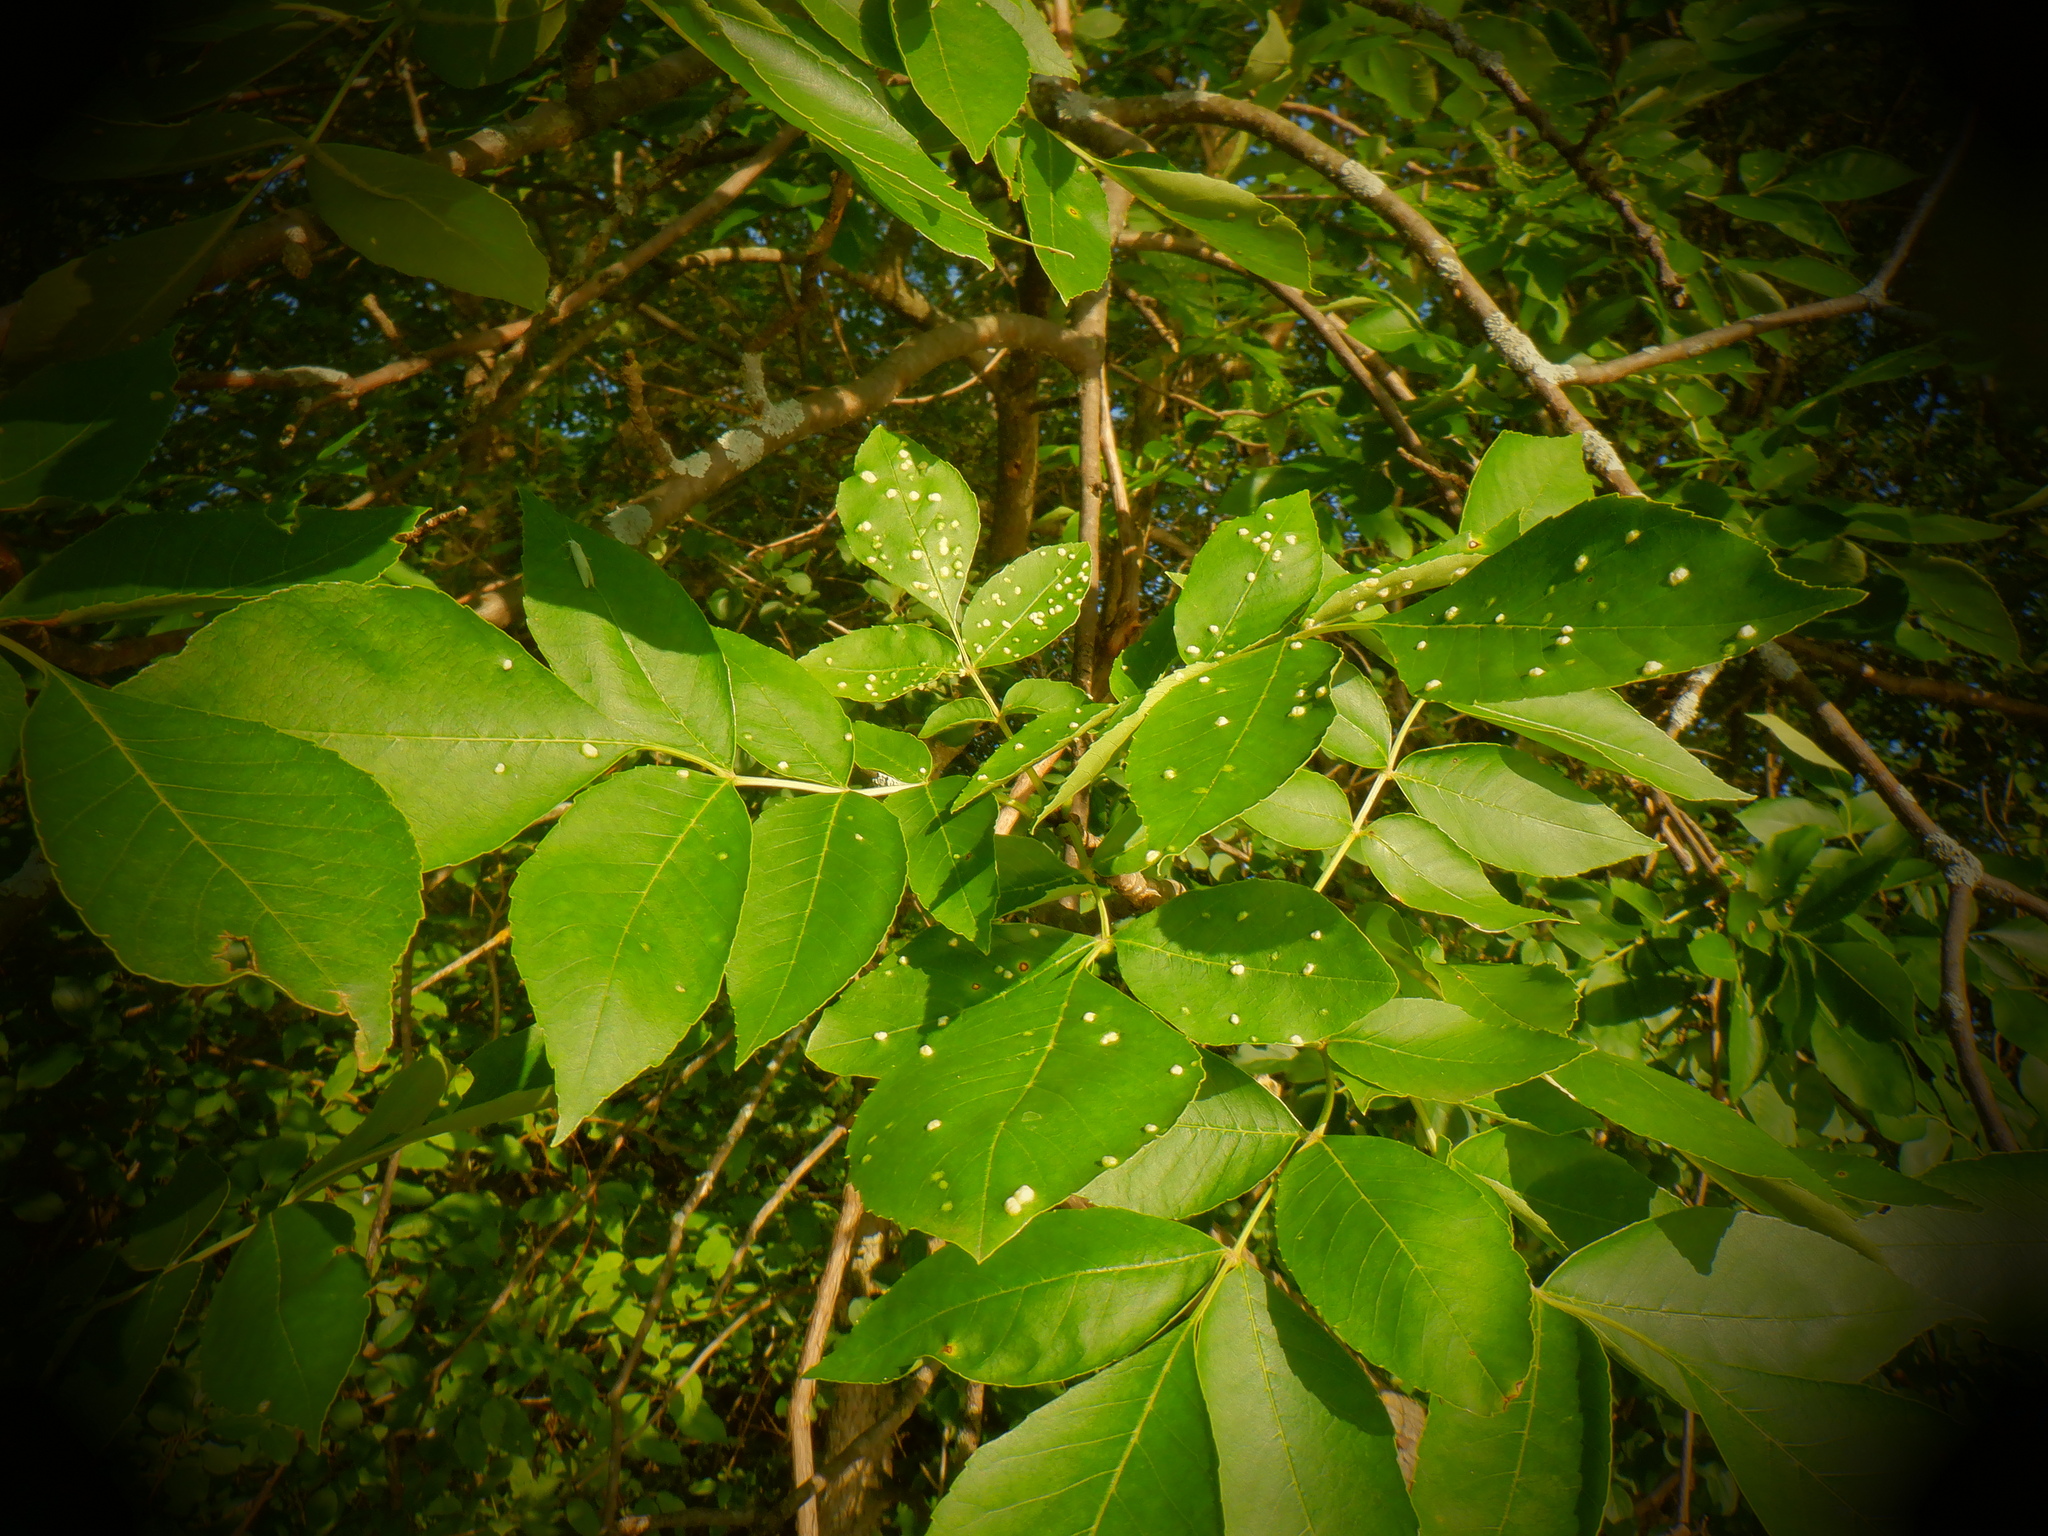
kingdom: Animalia
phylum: Arthropoda
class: Arachnida
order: Trombidiformes
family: Eriophyidae
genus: Aceria
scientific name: Aceria fraxinicola
